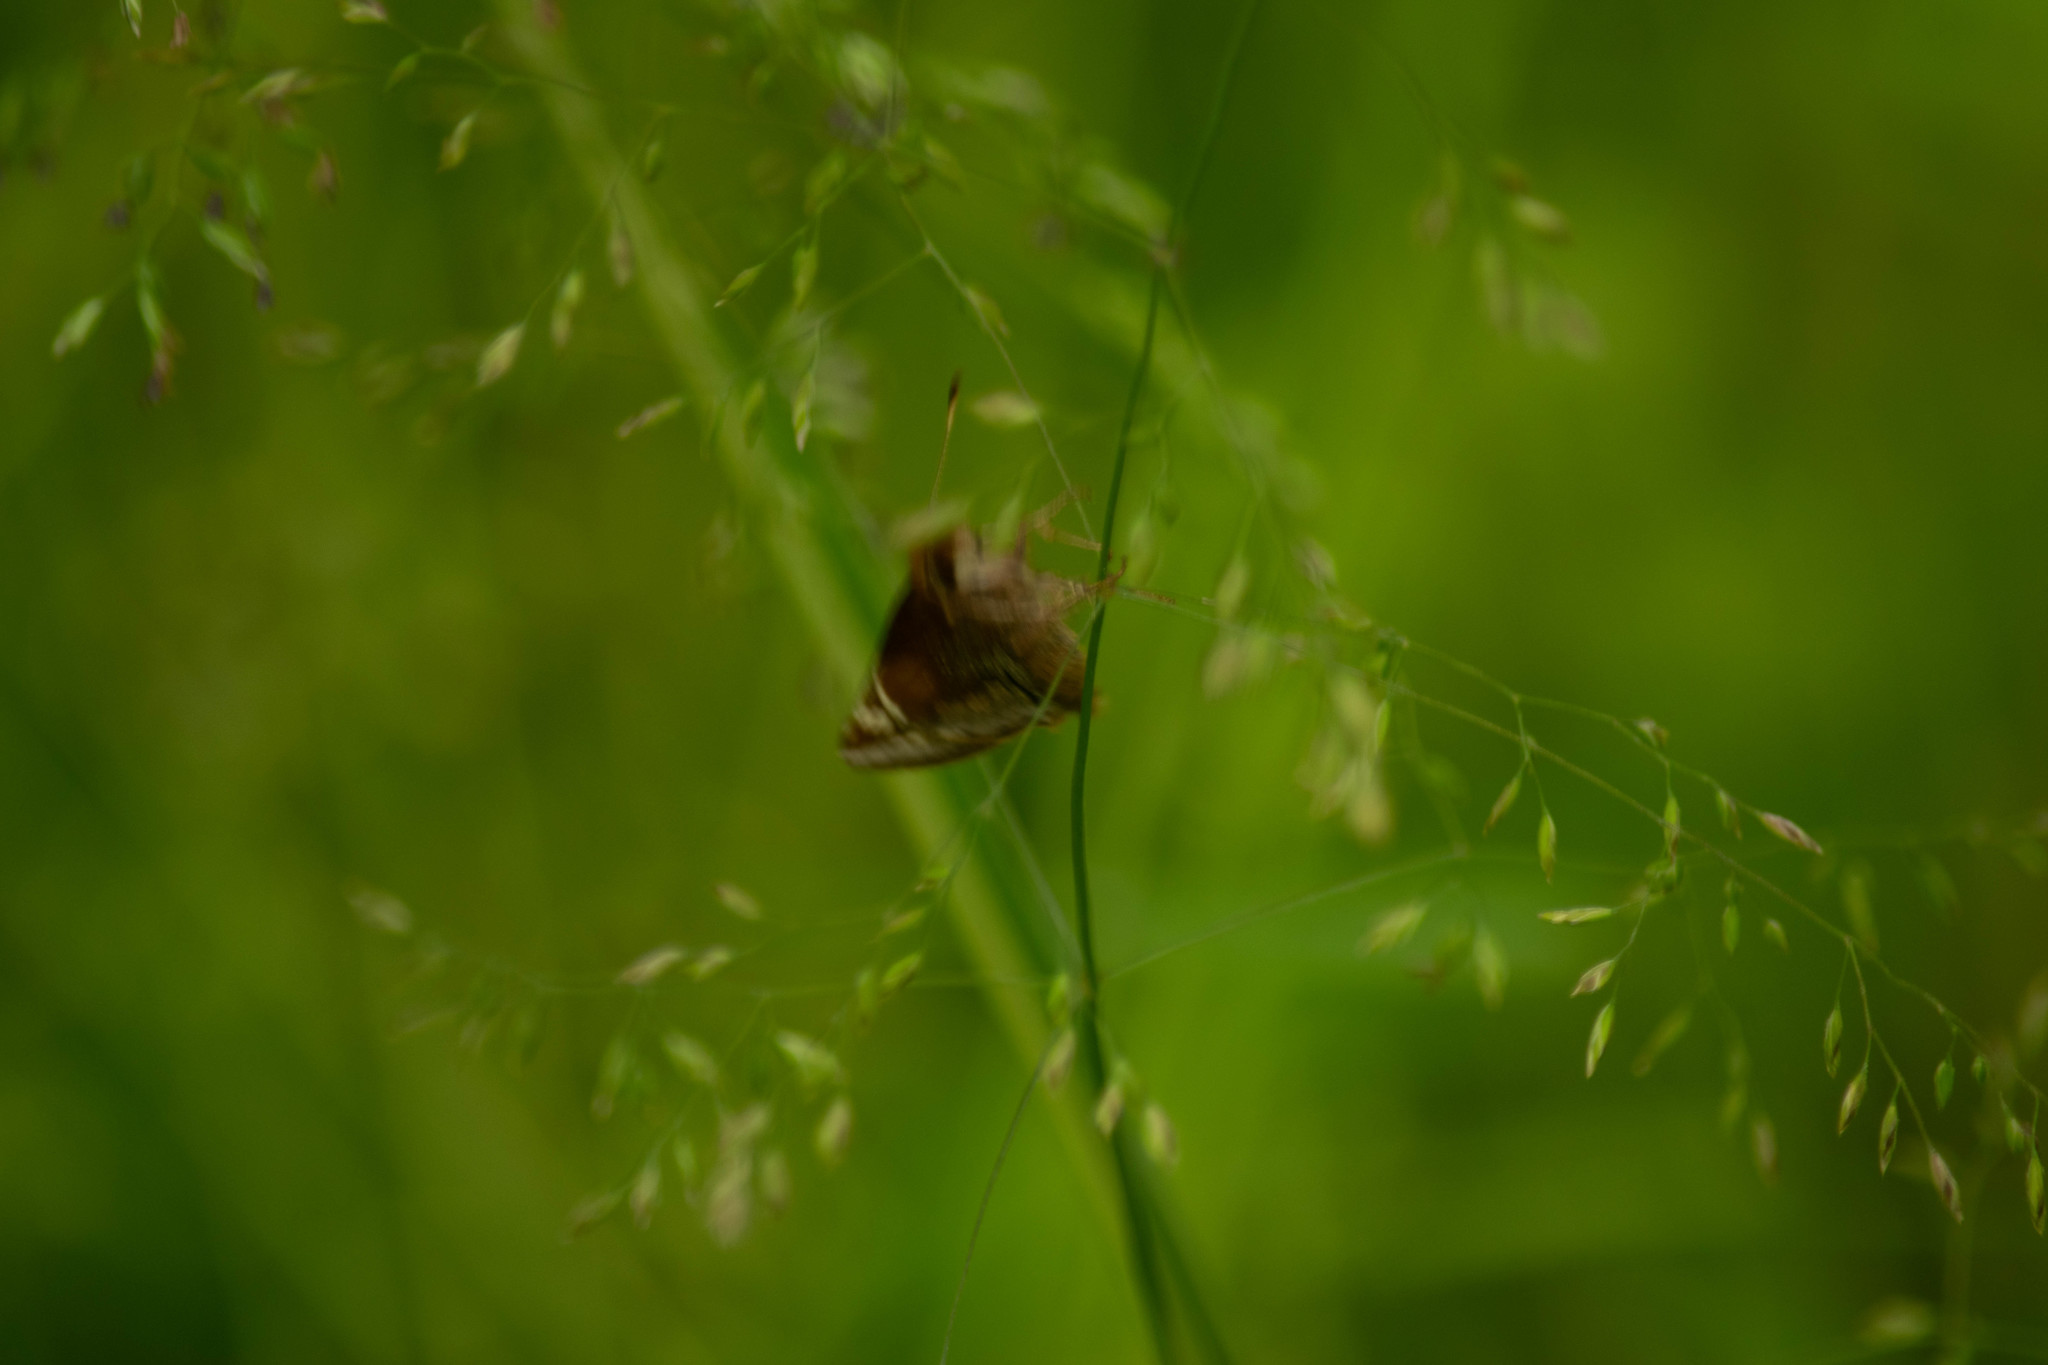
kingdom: Animalia
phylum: Arthropoda
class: Insecta
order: Lepidoptera
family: Hesperiidae
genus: Lon
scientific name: Lon zabulon
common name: Zabulon skipper
